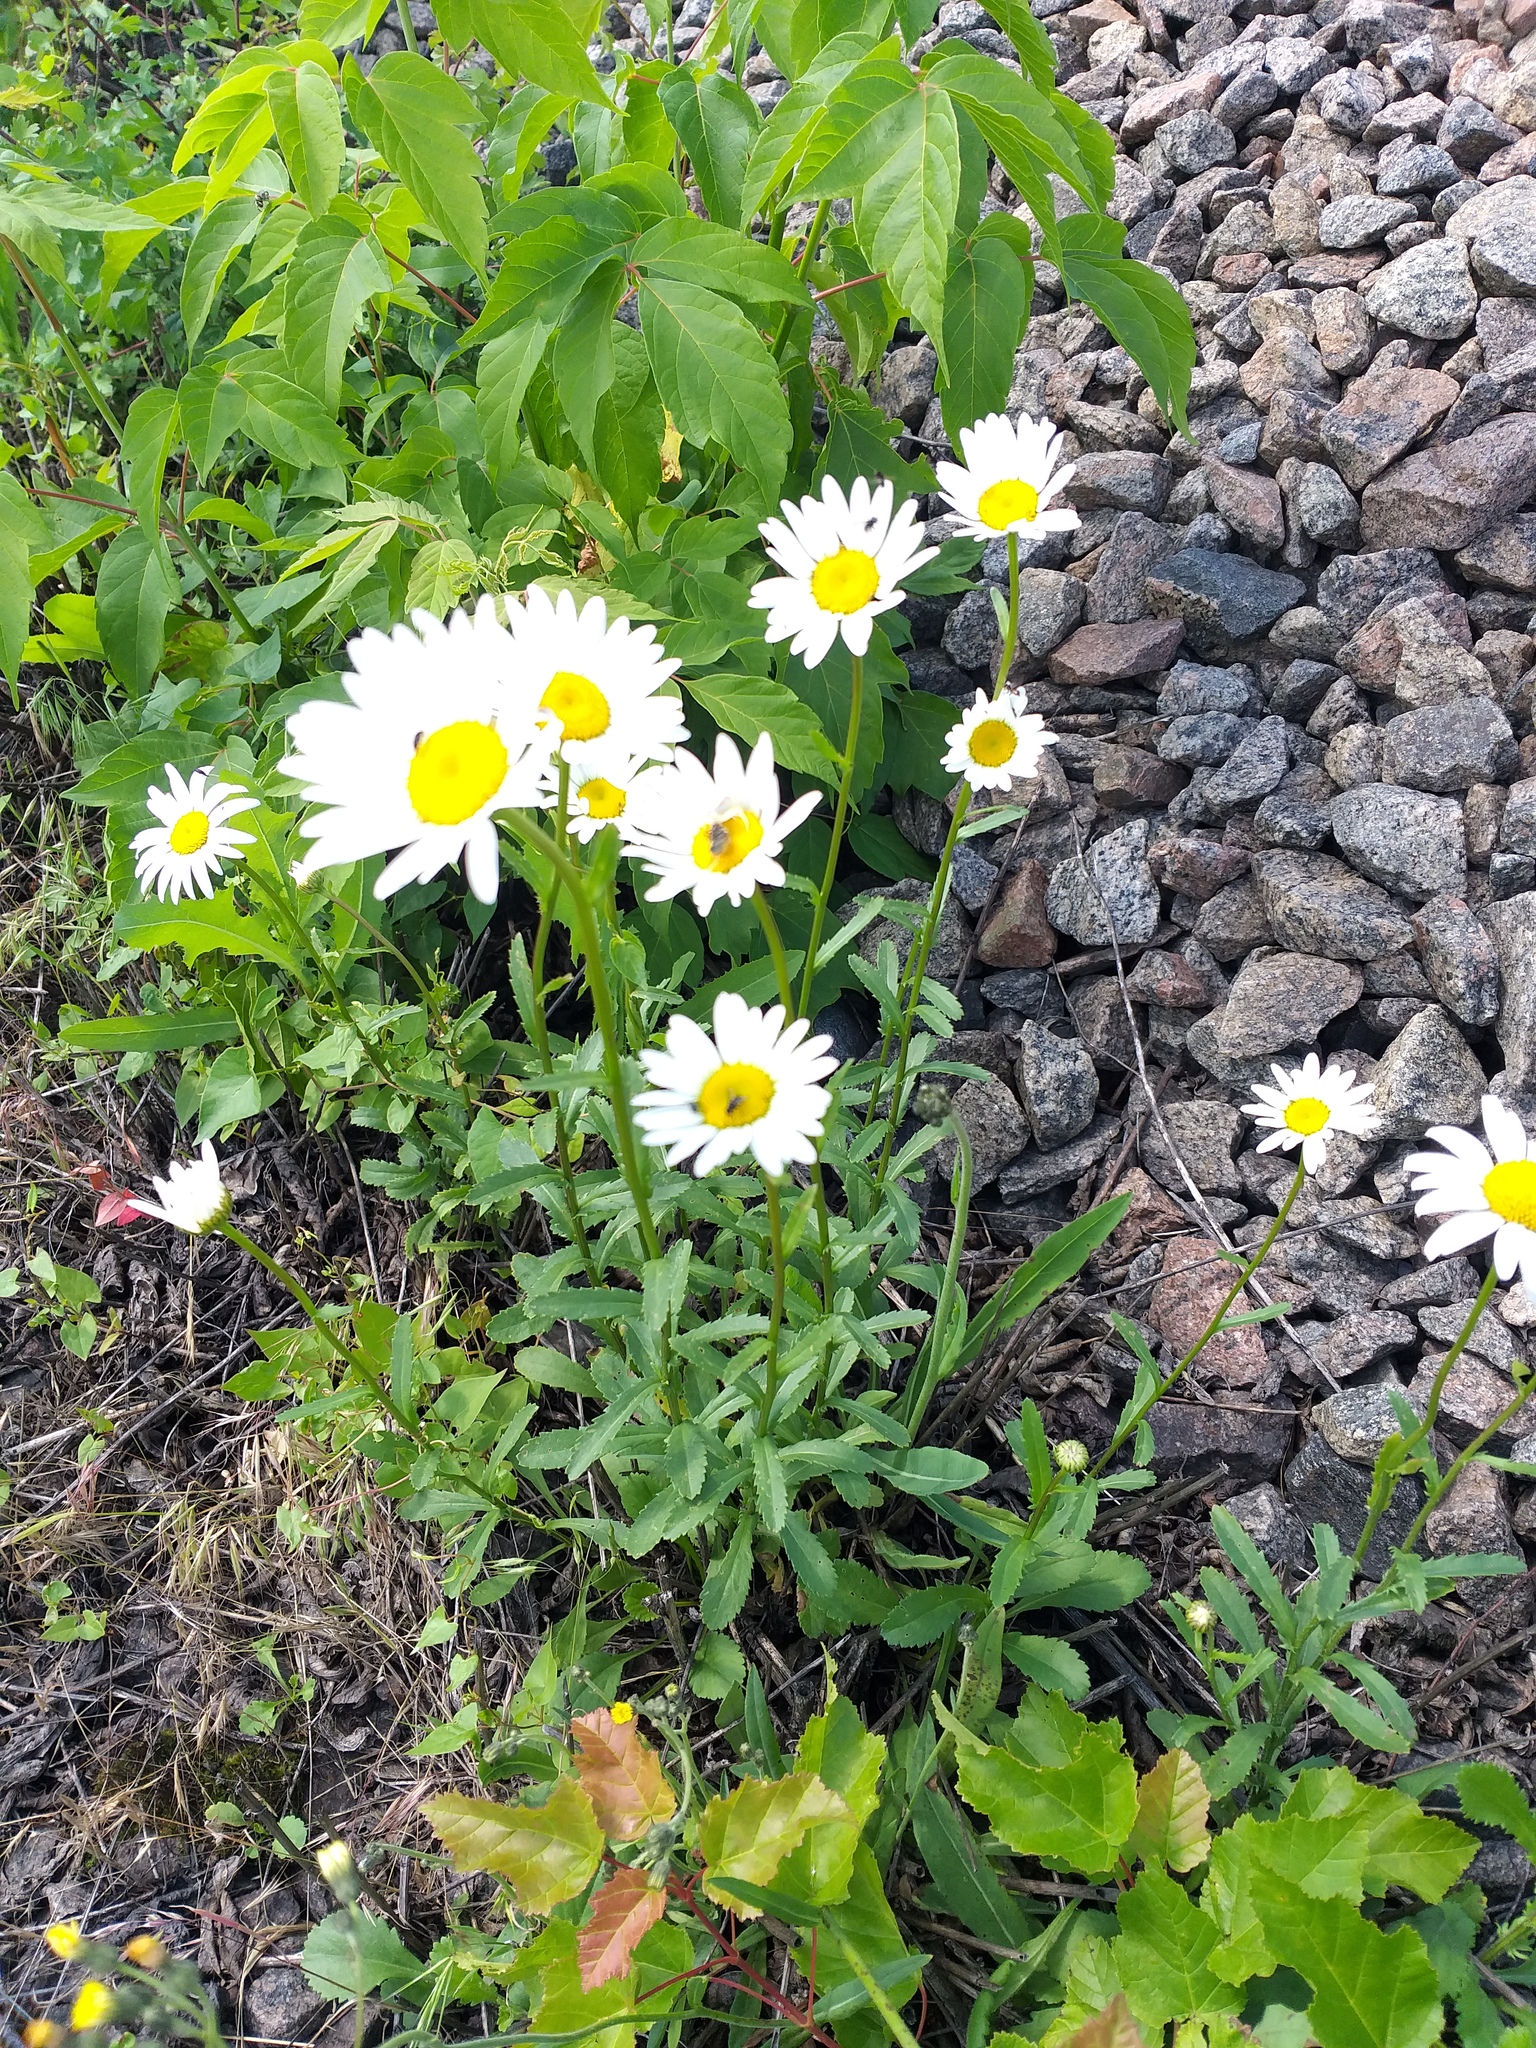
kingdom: Plantae
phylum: Tracheophyta
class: Magnoliopsida
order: Asterales
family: Asteraceae
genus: Leucanthemum
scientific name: Leucanthemum vulgare
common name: Oxeye daisy
